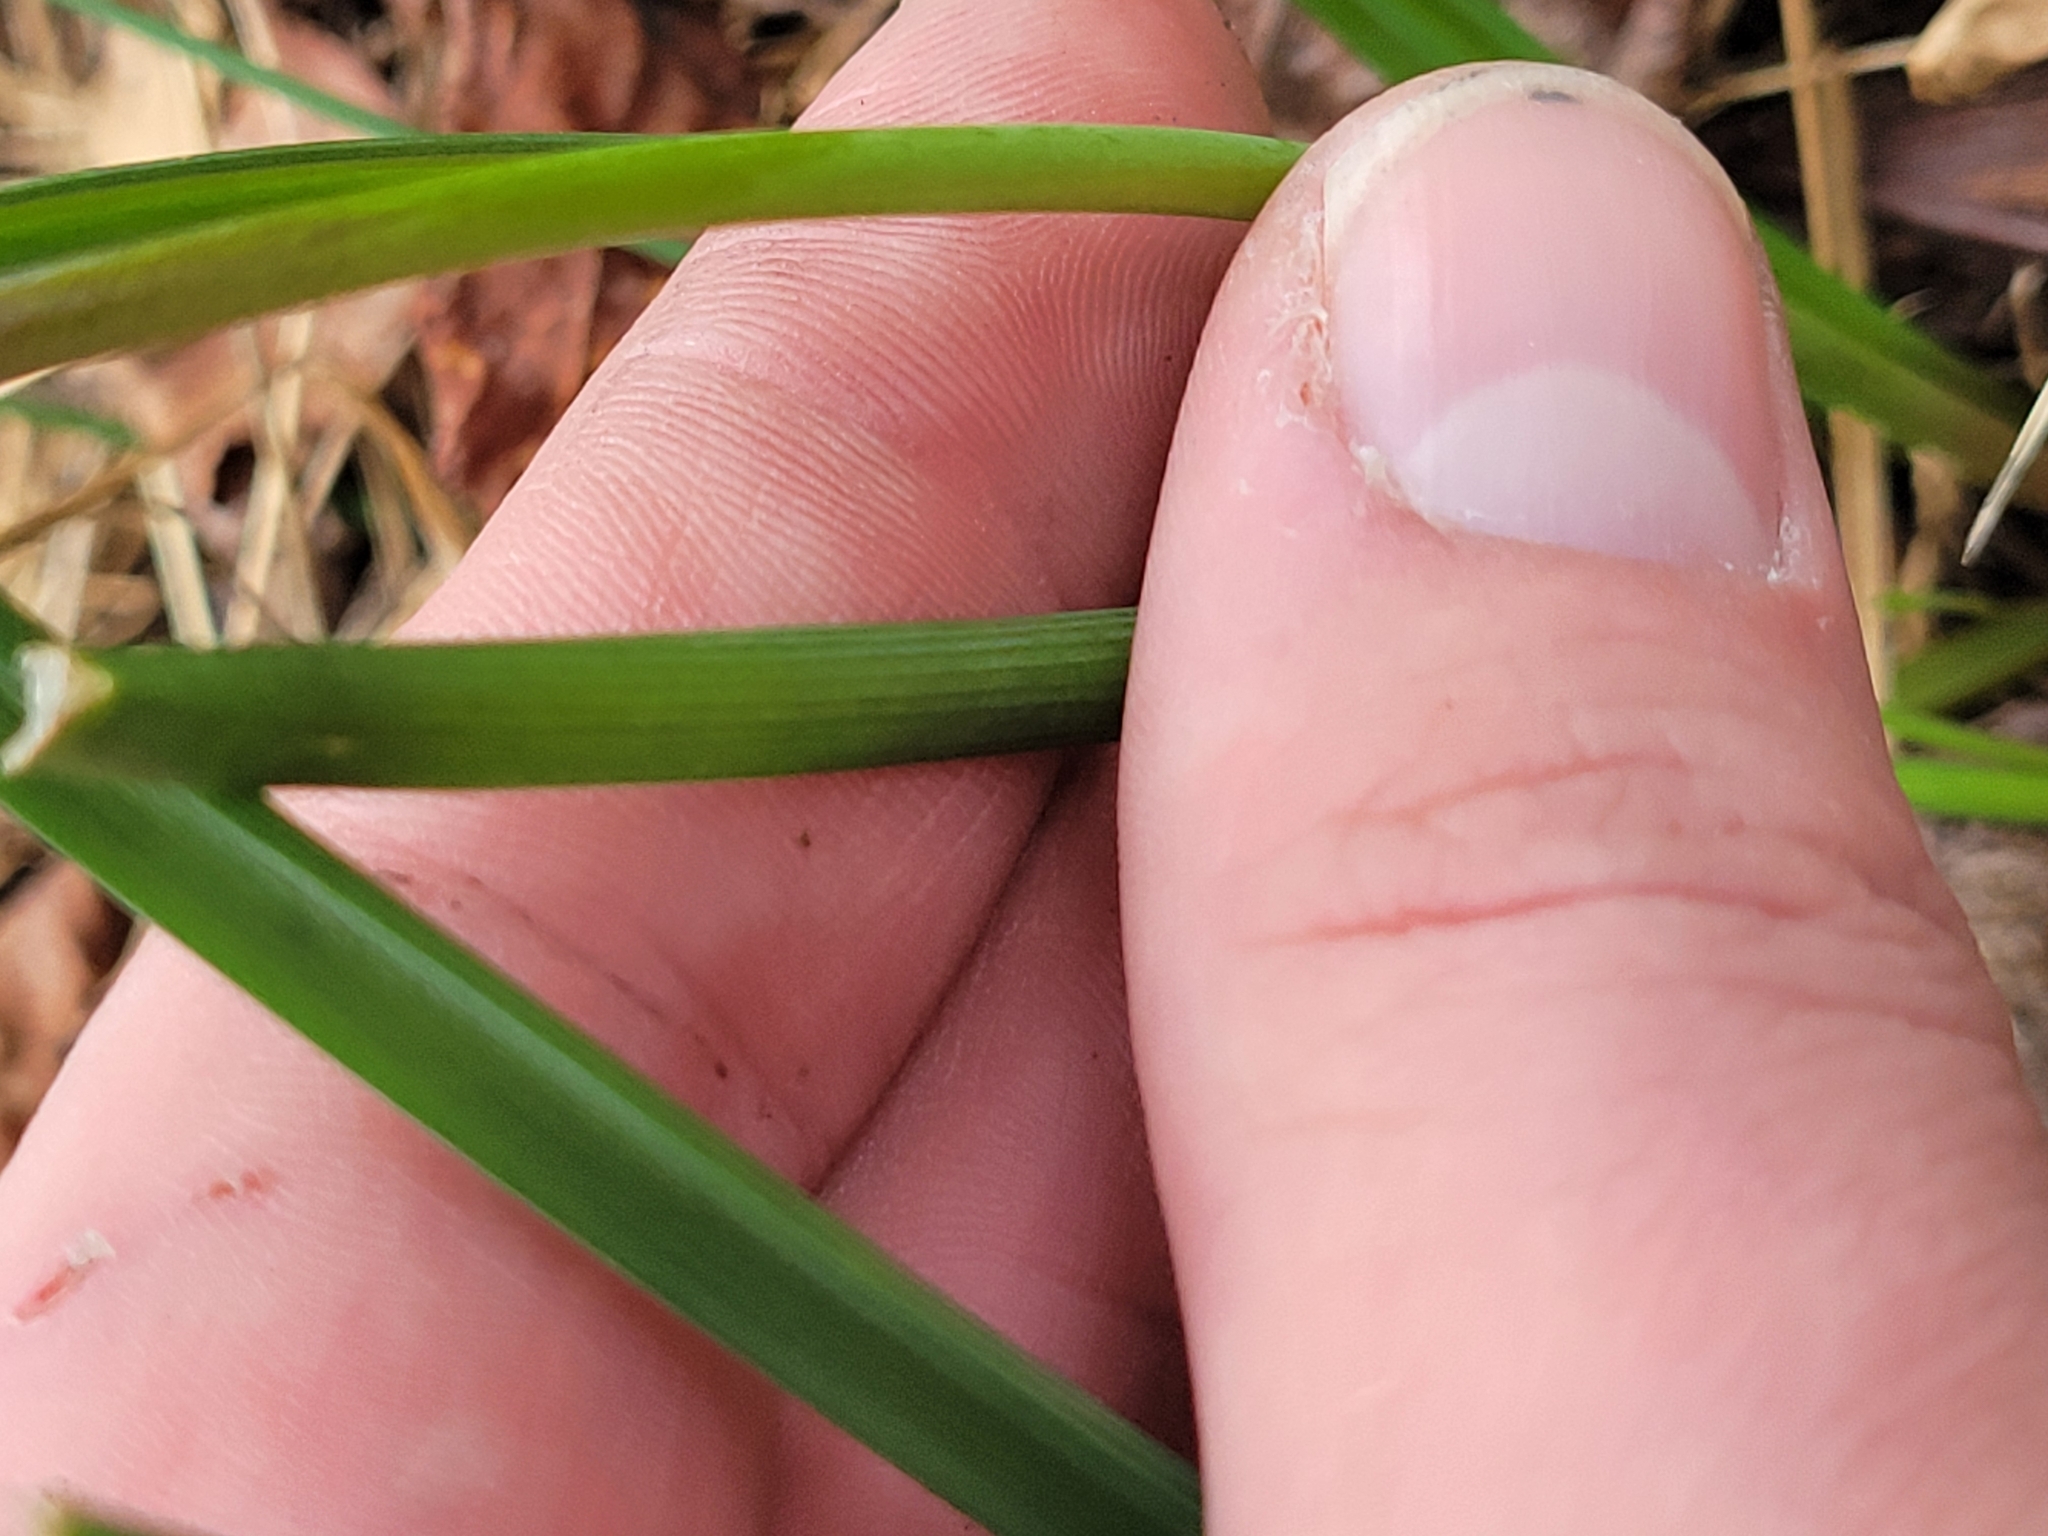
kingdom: Plantae
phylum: Tracheophyta
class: Liliopsida
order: Asparagales
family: Asparagaceae
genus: Muscari
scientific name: Muscari botryoides
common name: Compact grape-hyacinth
